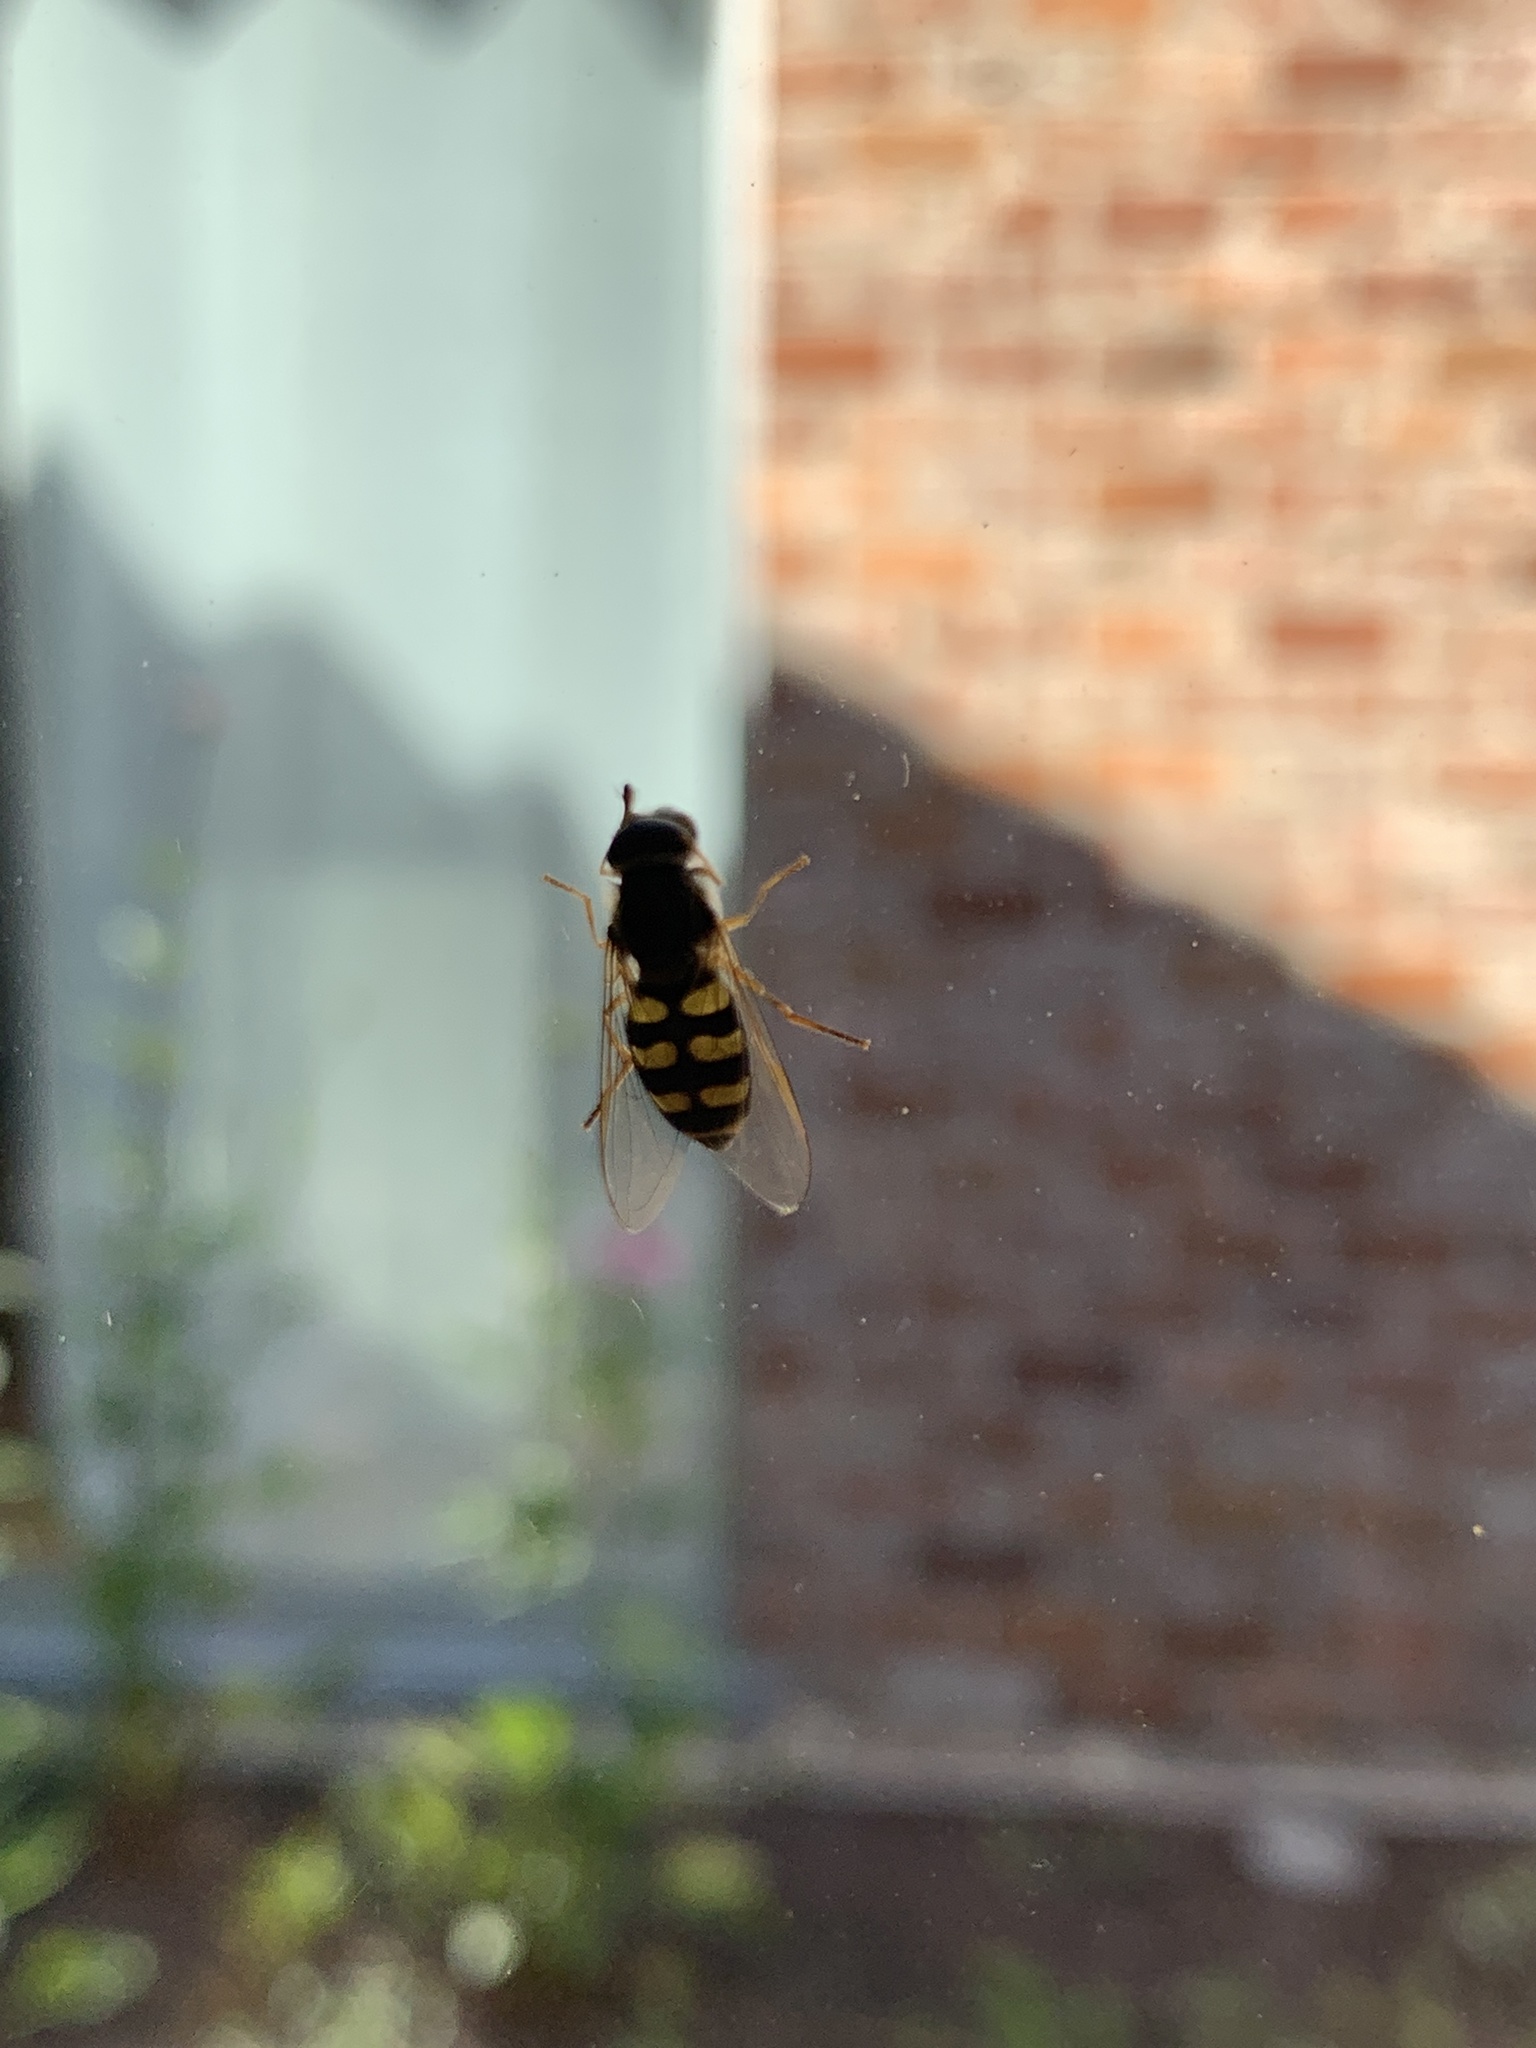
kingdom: Animalia
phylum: Arthropoda
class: Insecta
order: Diptera
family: Syrphidae
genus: Eupeodes
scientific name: Eupeodes corollae
